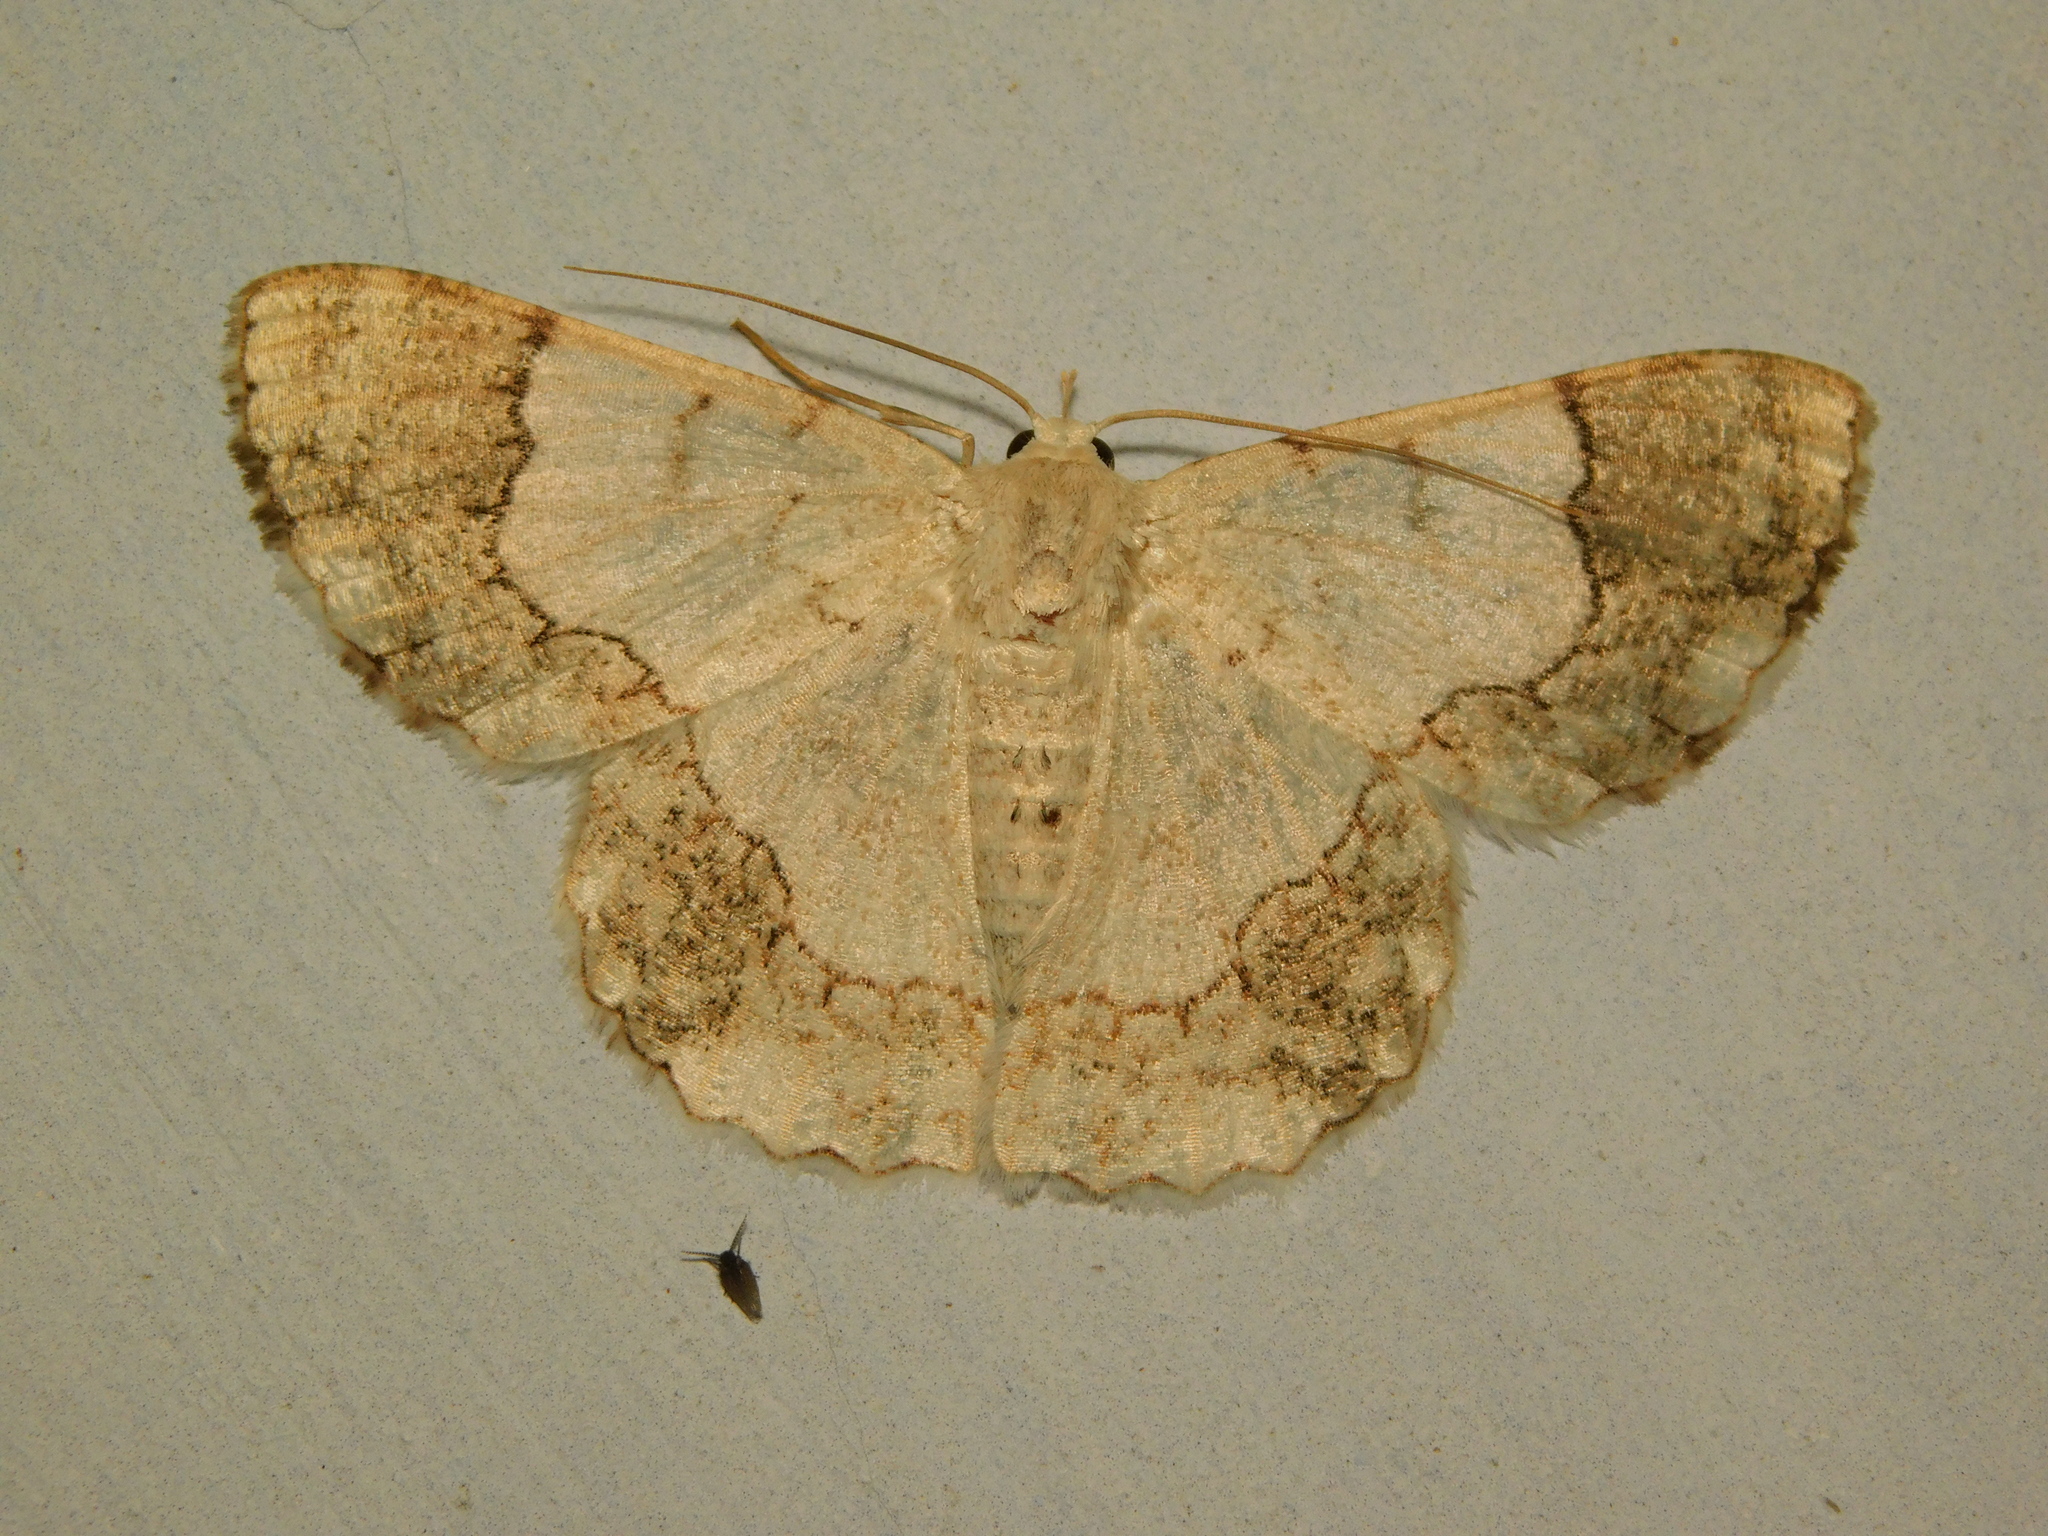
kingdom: Animalia
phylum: Arthropoda
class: Insecta
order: Lepidoptera
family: Geometridae
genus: Pingasa
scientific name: Pingasa ruginaria
